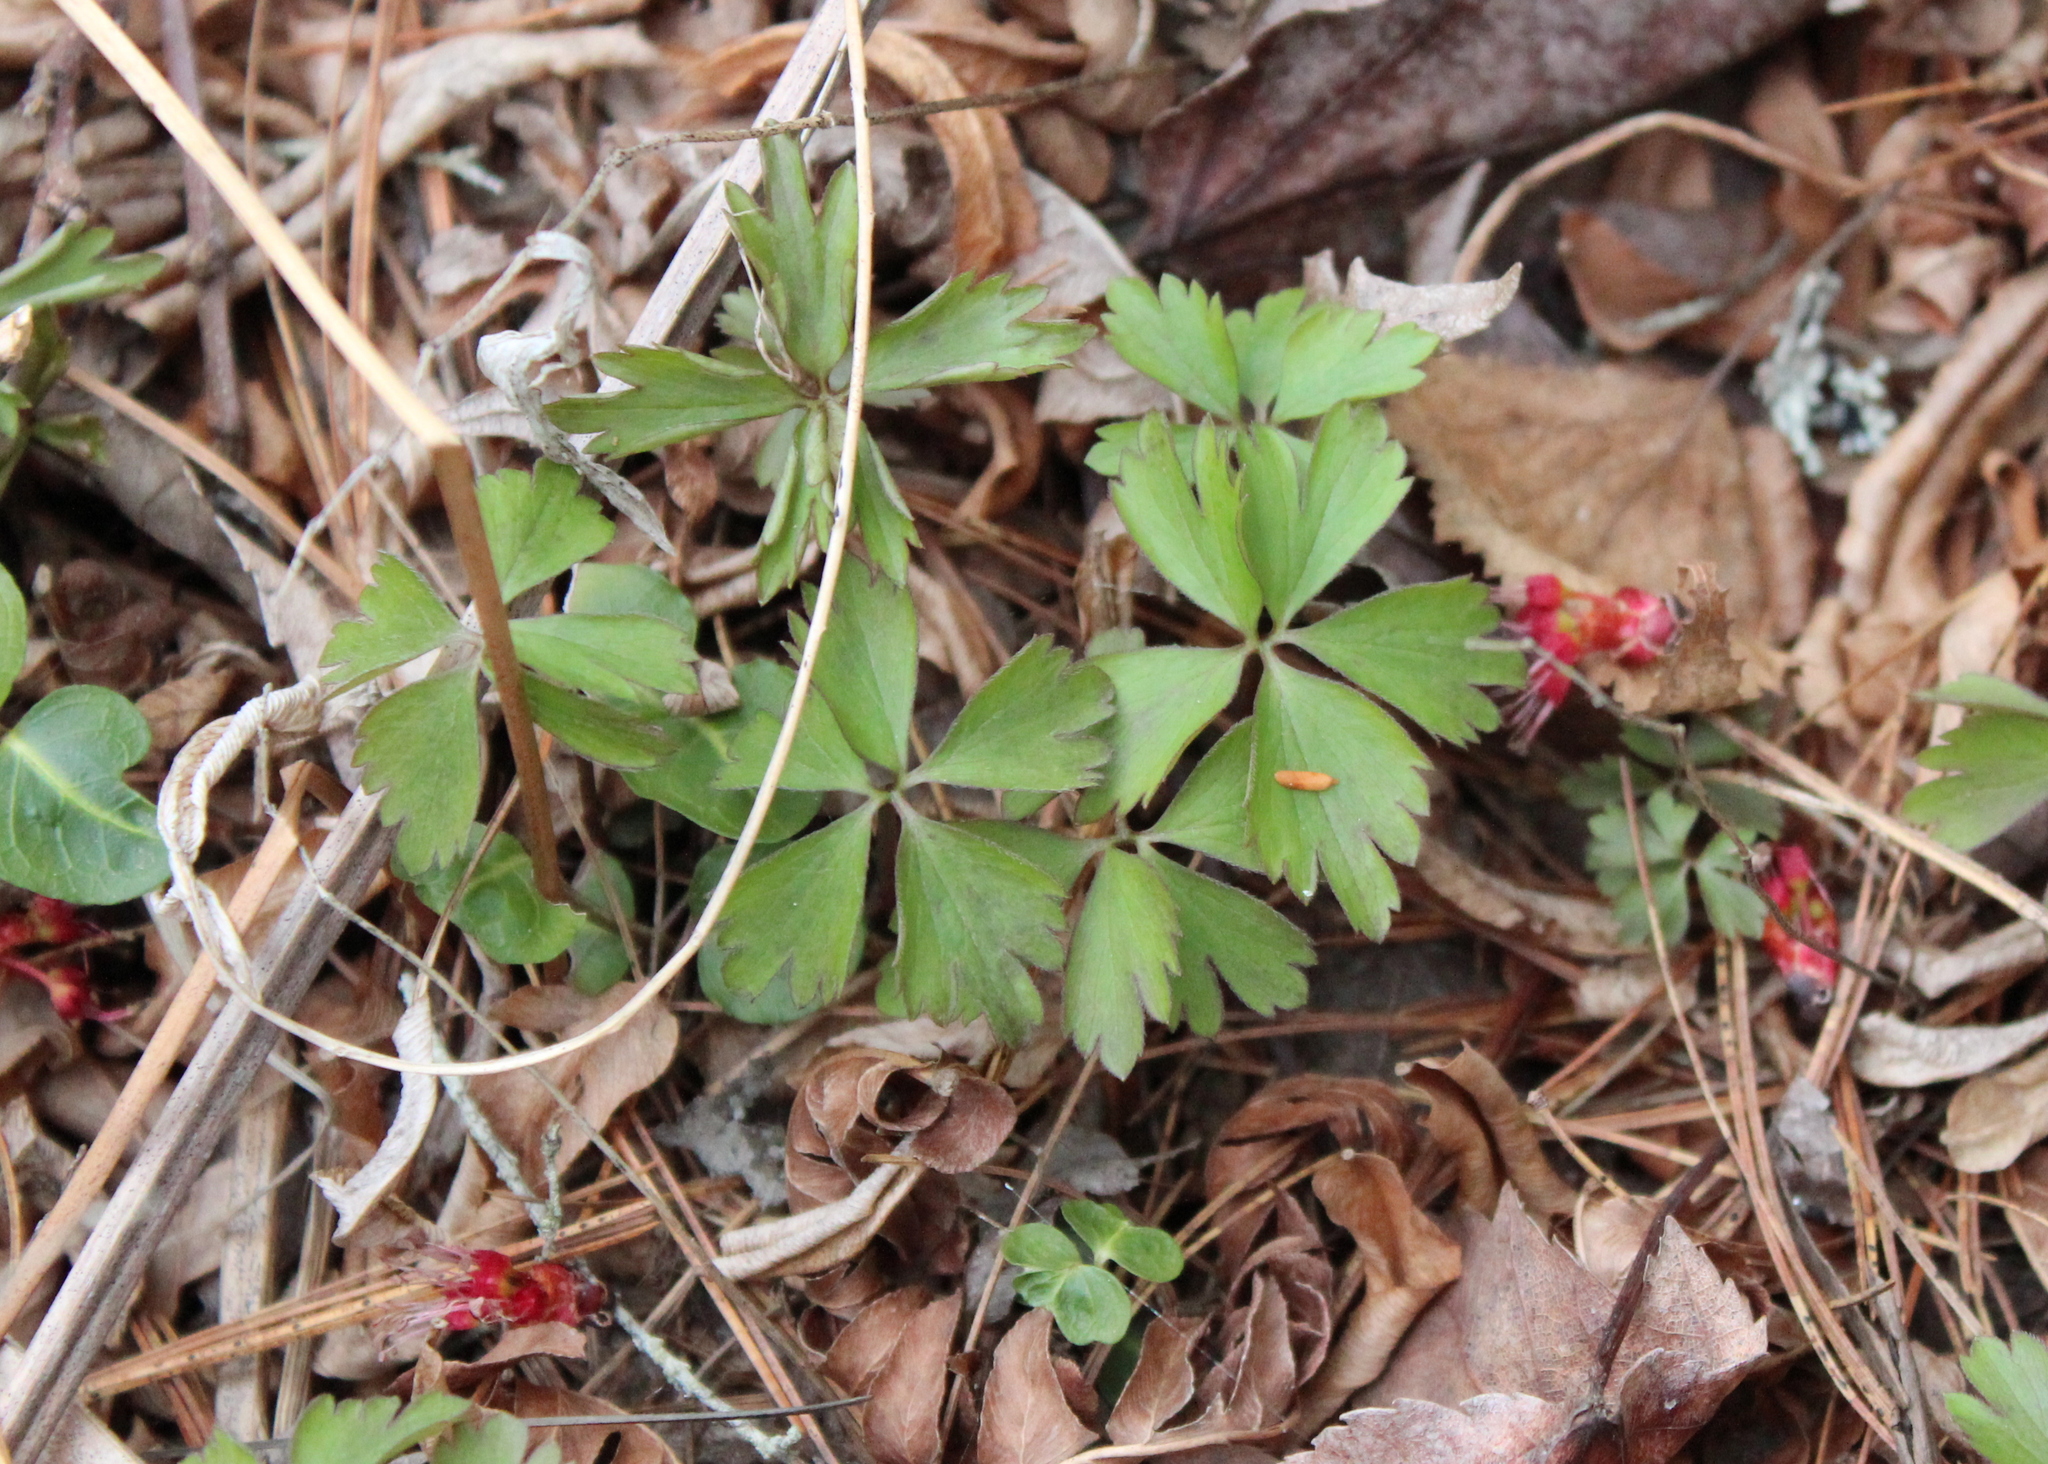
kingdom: Plantae
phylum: Tracheophyta
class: Magnoliopsida
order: Ranunculales
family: Ranunculaceae
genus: Anemone
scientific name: Anemone quinquefolia
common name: Wood anemone
